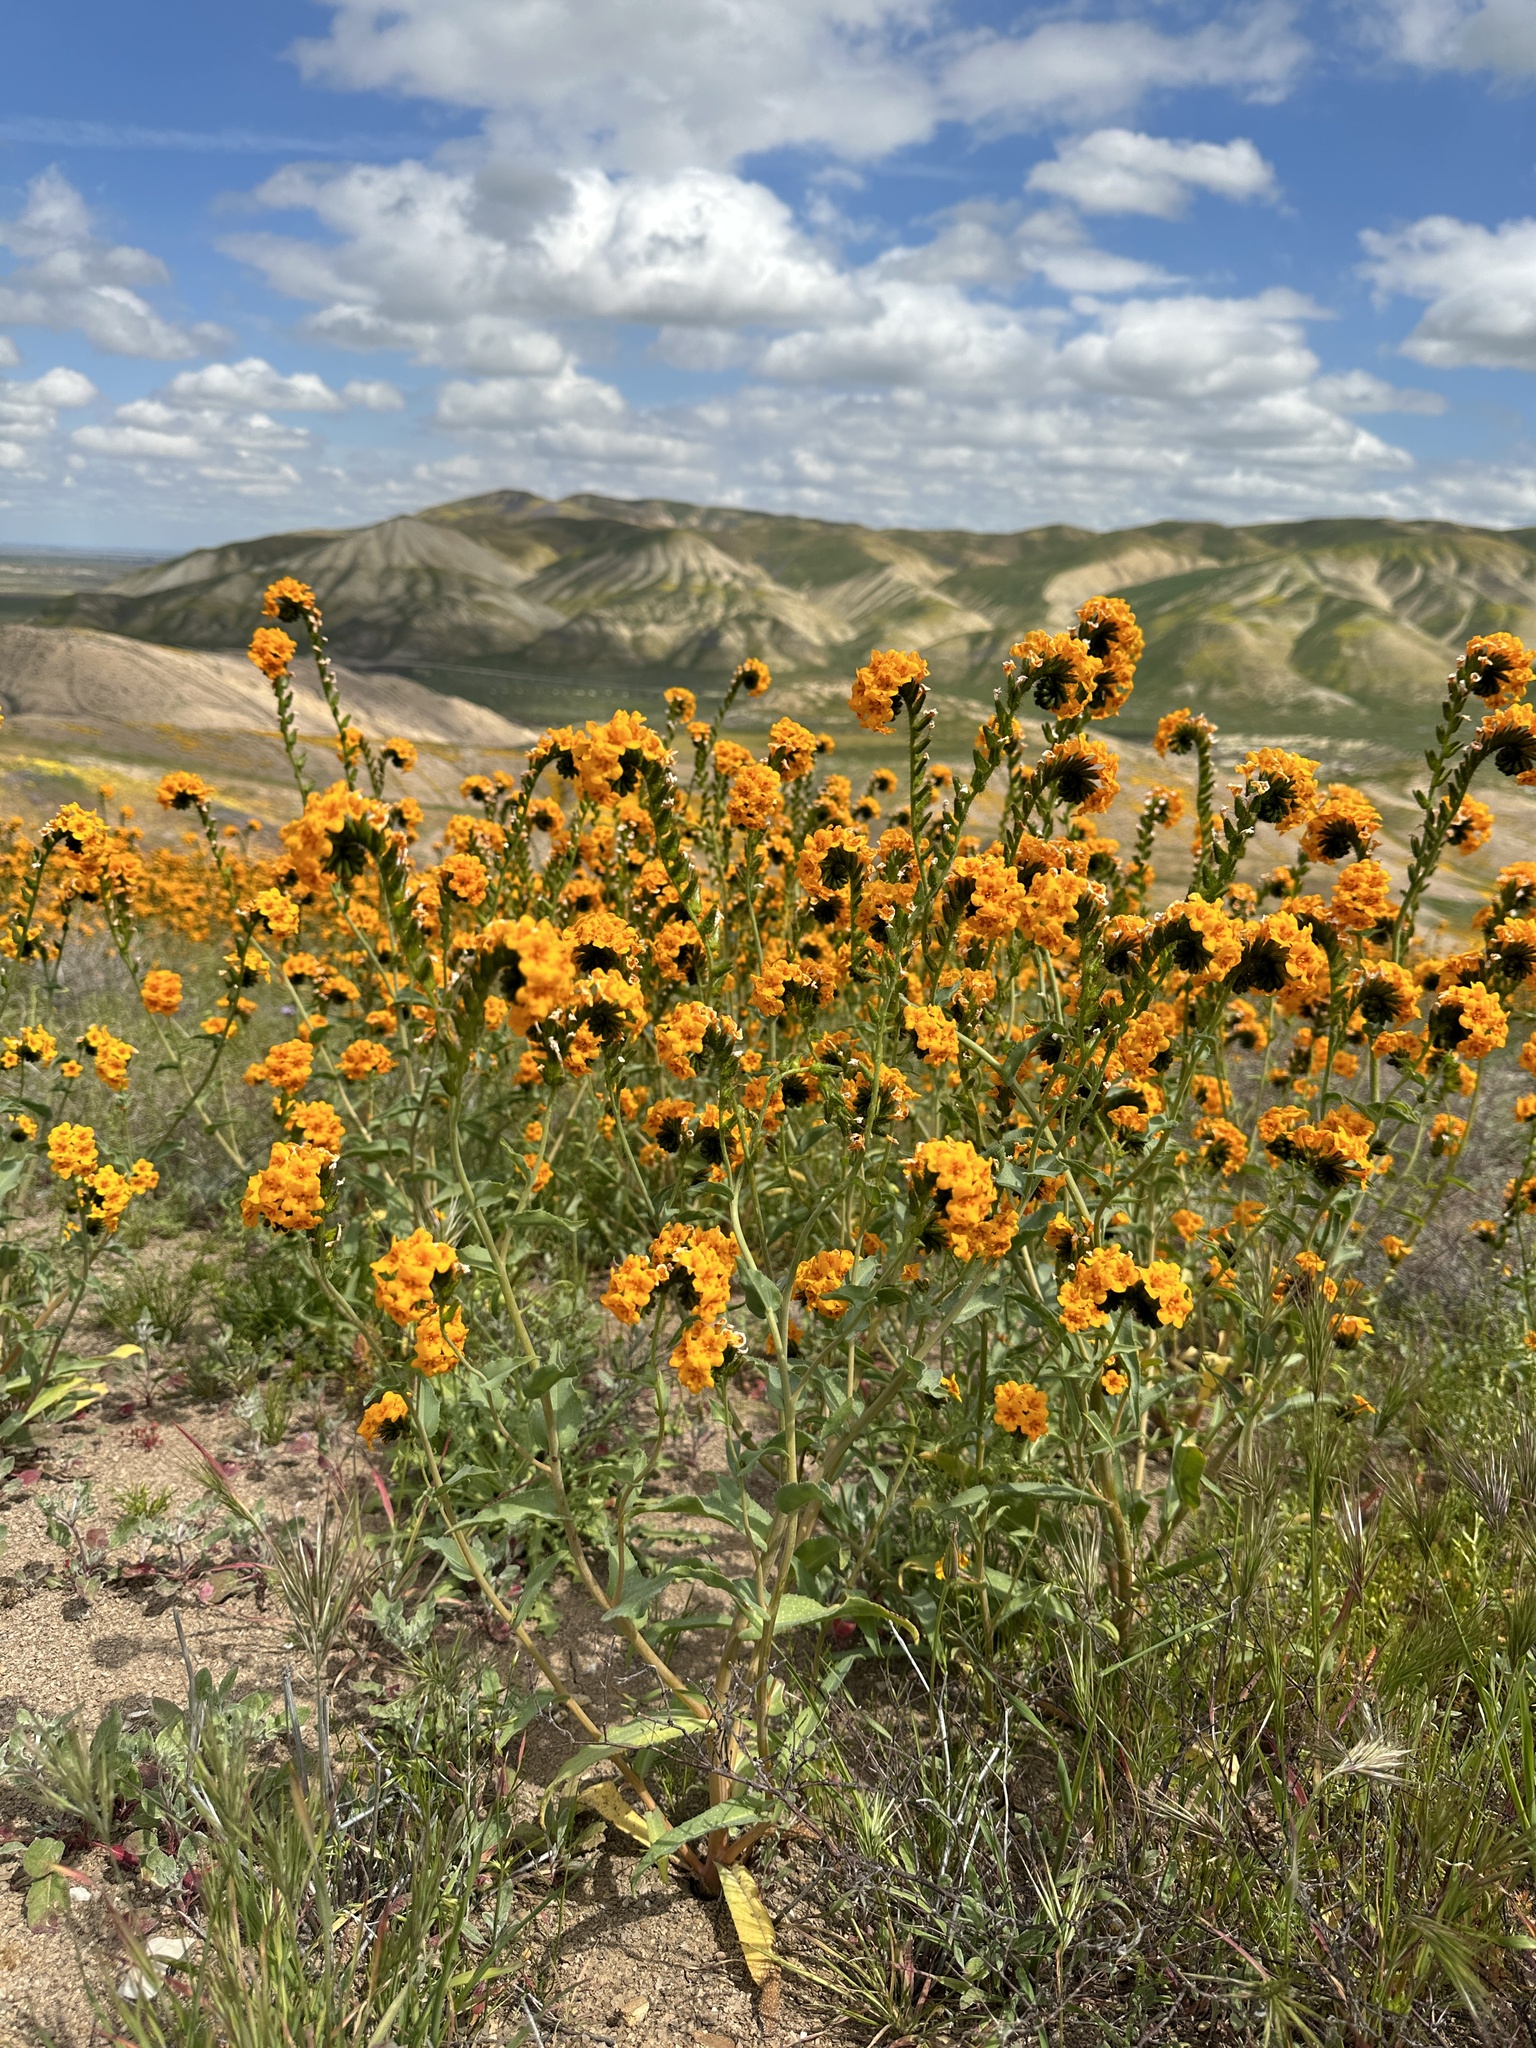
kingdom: Plantae
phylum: Tracheophyta
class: Magnoliopsida
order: Boraginales
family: Boraginaceae
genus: Amsinckia
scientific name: Amsinckia vernicosa
